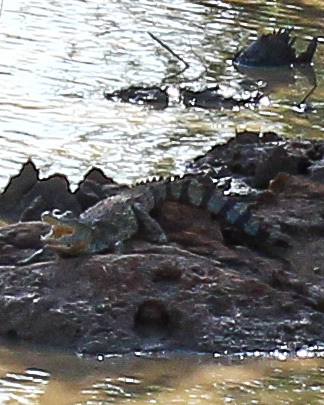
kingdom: Animalia
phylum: Chordata
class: Crocodylia
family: Crocodylidae
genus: Crocodylus
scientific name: Crocodylus palustris
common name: Mugger crocodile
